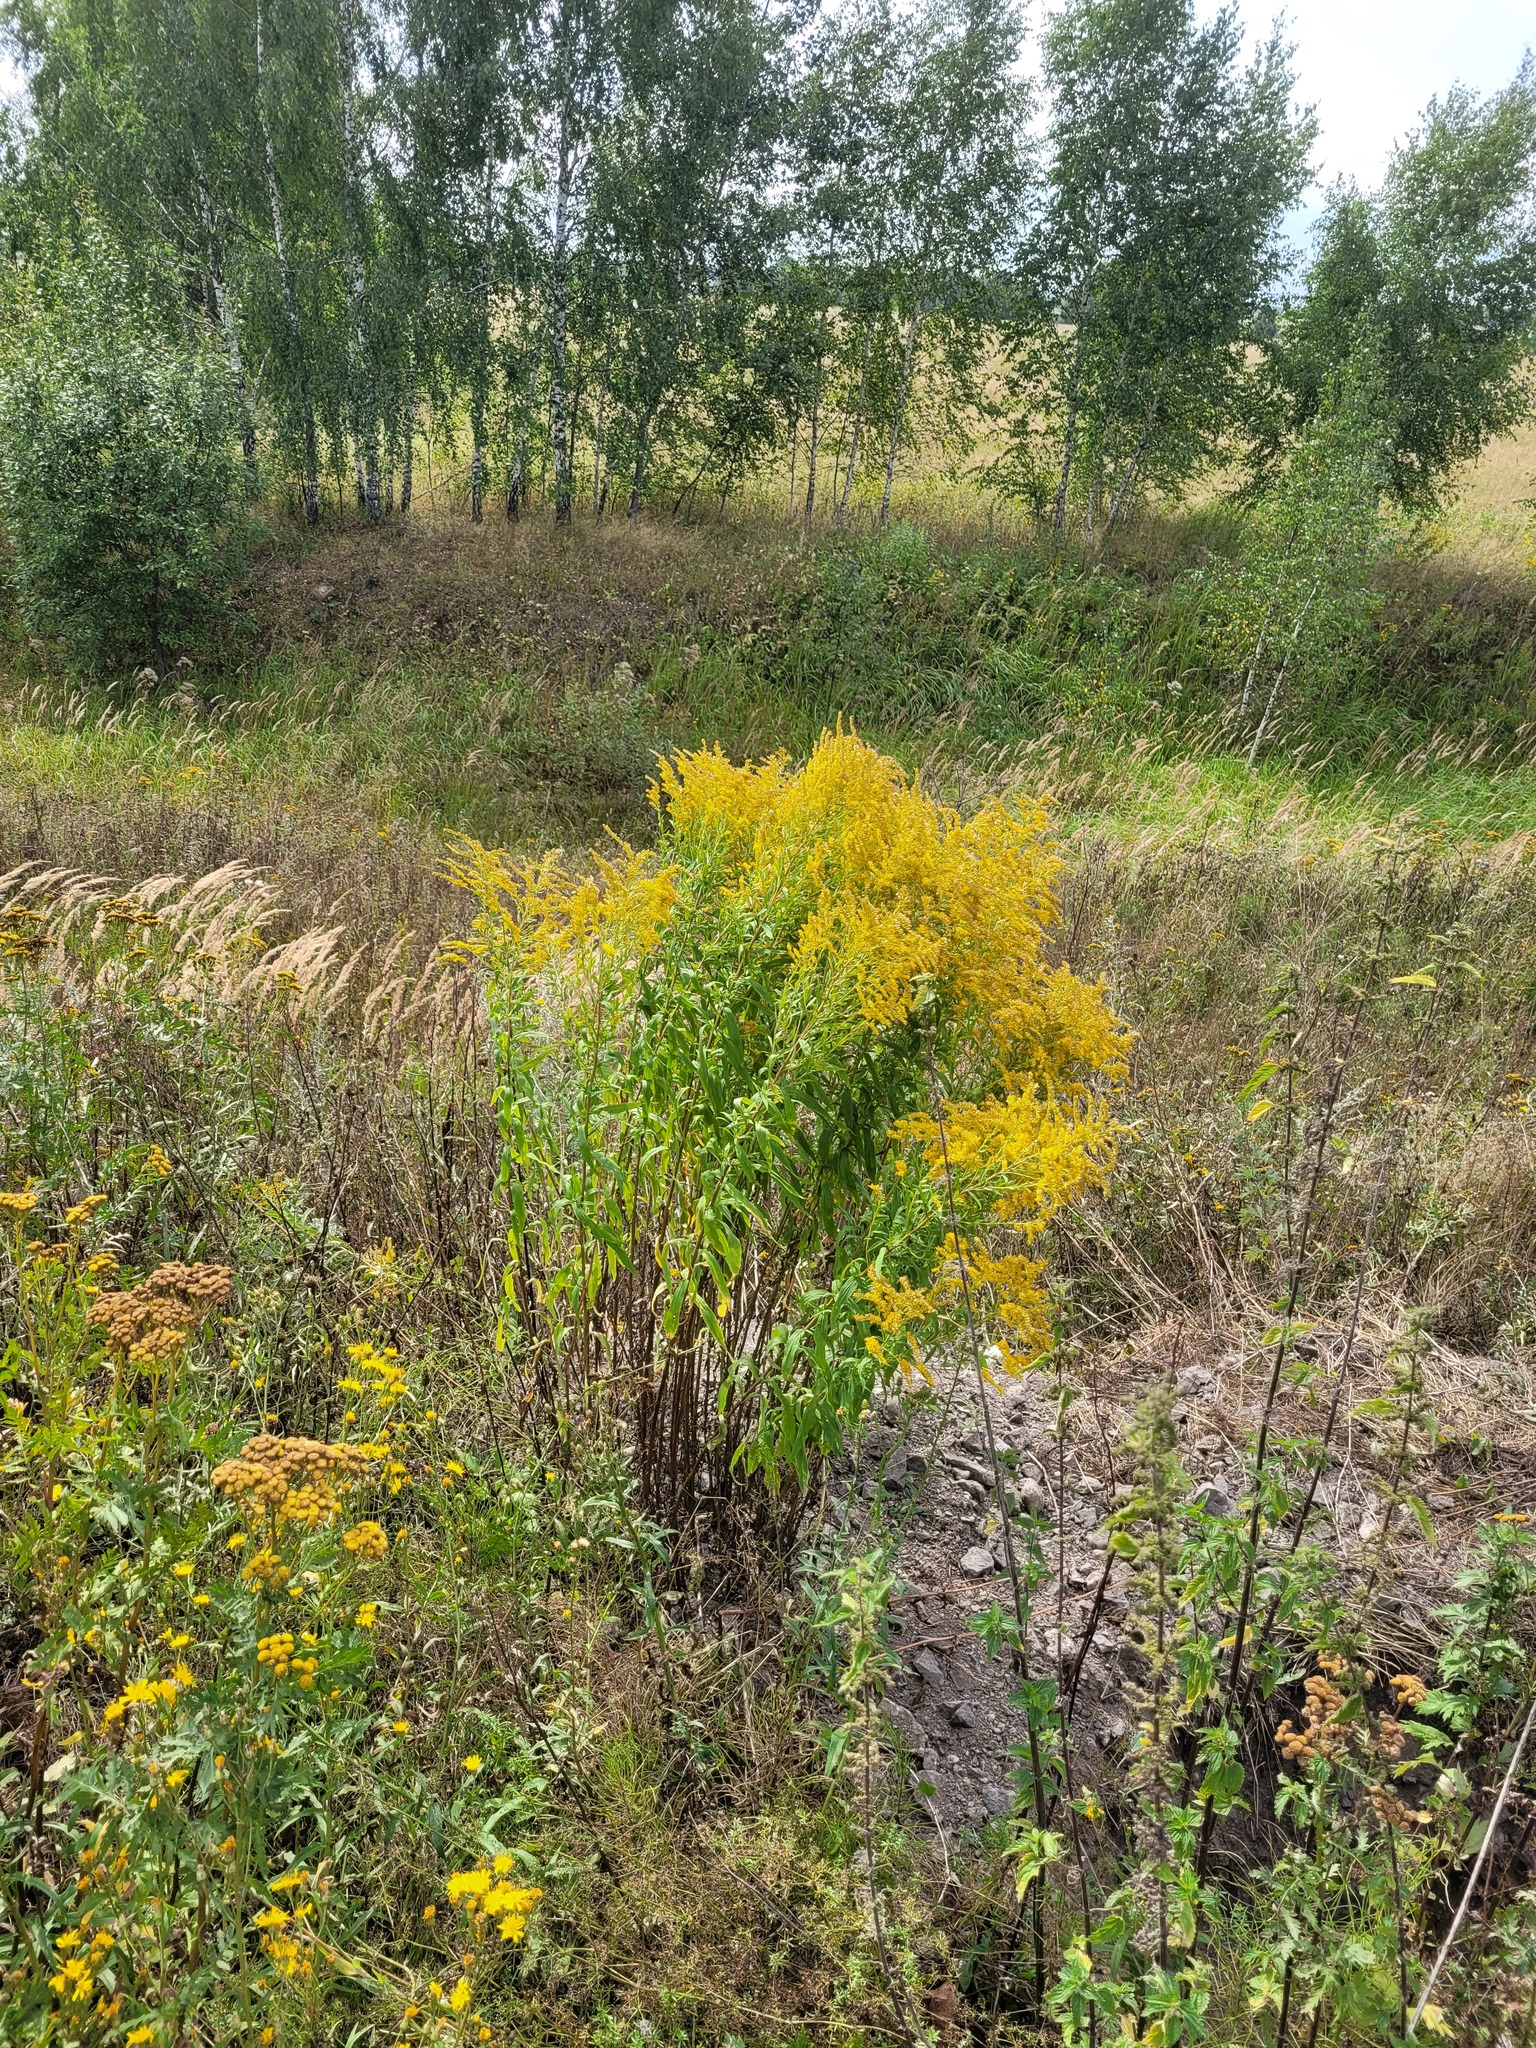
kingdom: Plantae
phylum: Tracheophyta
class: Magnoliopsida
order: Asterales
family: Asteraceae
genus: Solidago
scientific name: Solidago canadensis
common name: Canada goldenrod
